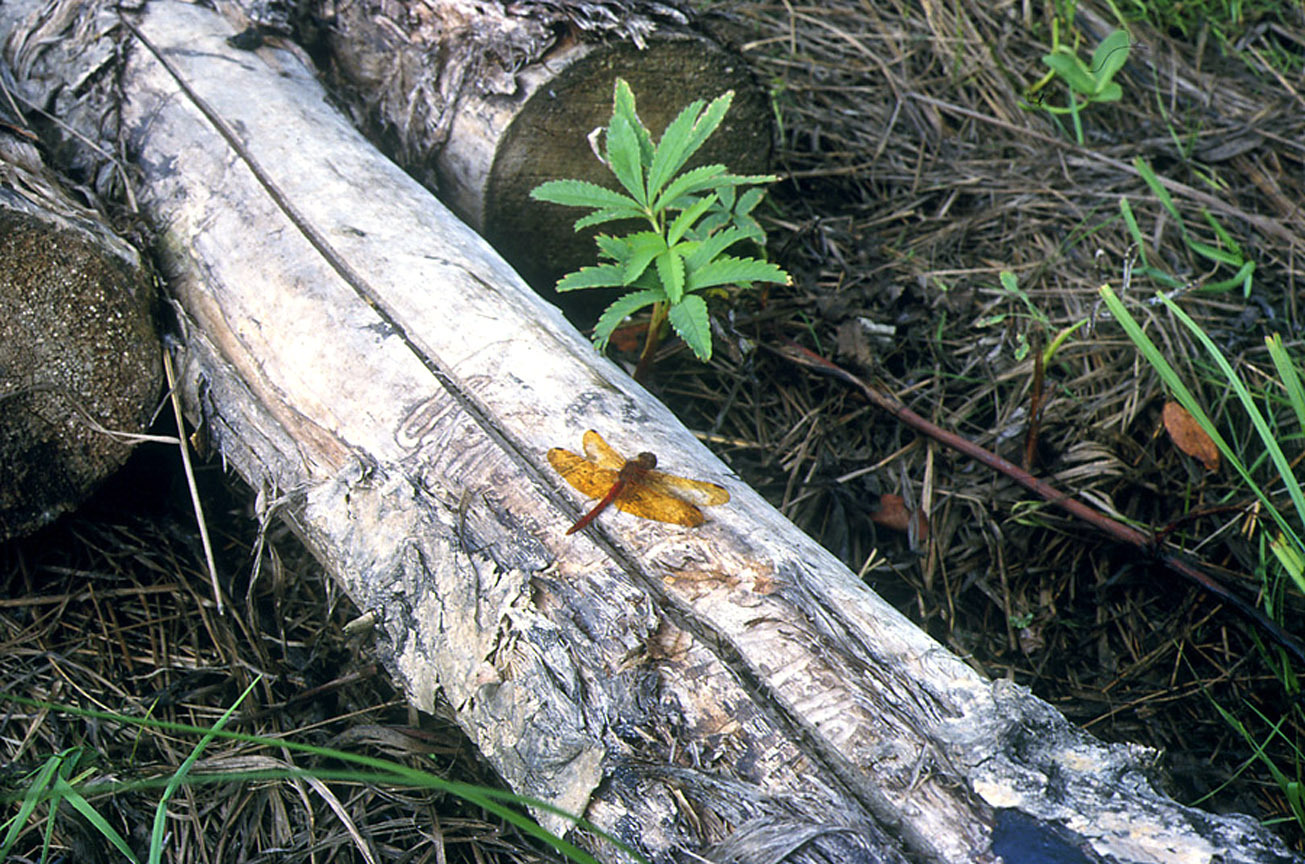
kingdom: Animalia
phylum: Arthropoda
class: Insecta
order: Odonata
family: Libellulidae
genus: Sympetrum
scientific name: Sympetrum croceolum
